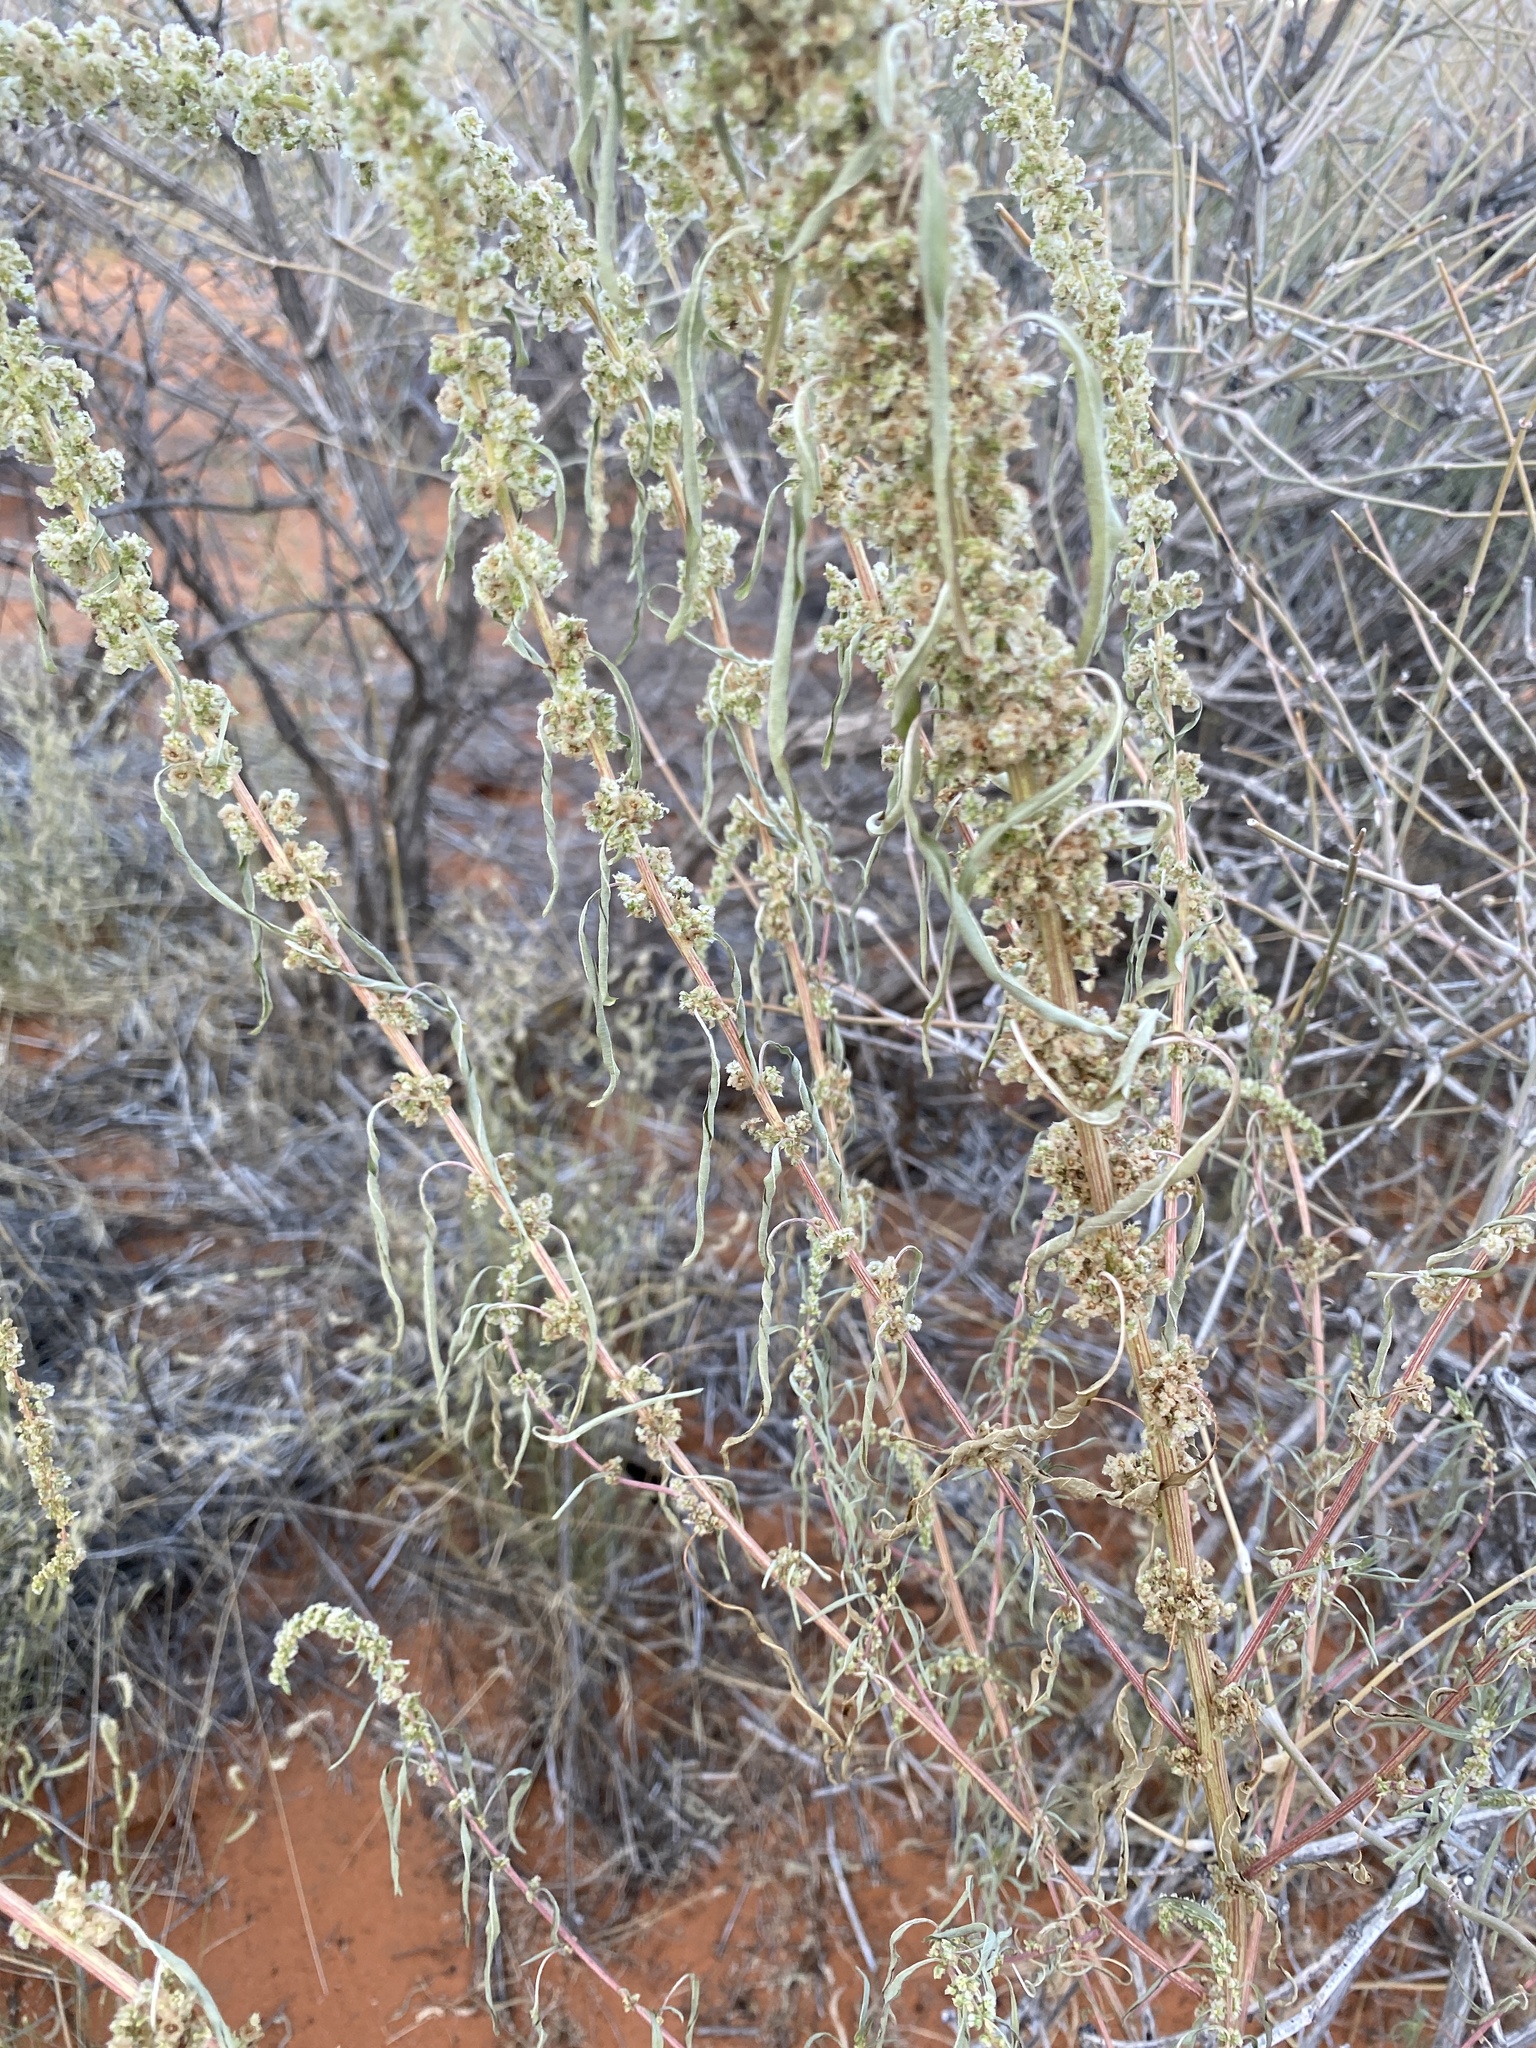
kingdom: Plantae
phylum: Tracheophyta
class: Magnoliopsida
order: Caryophyllales
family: Amaranthaceae
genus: Amaranthus
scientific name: Amaranthus fimbriatus
